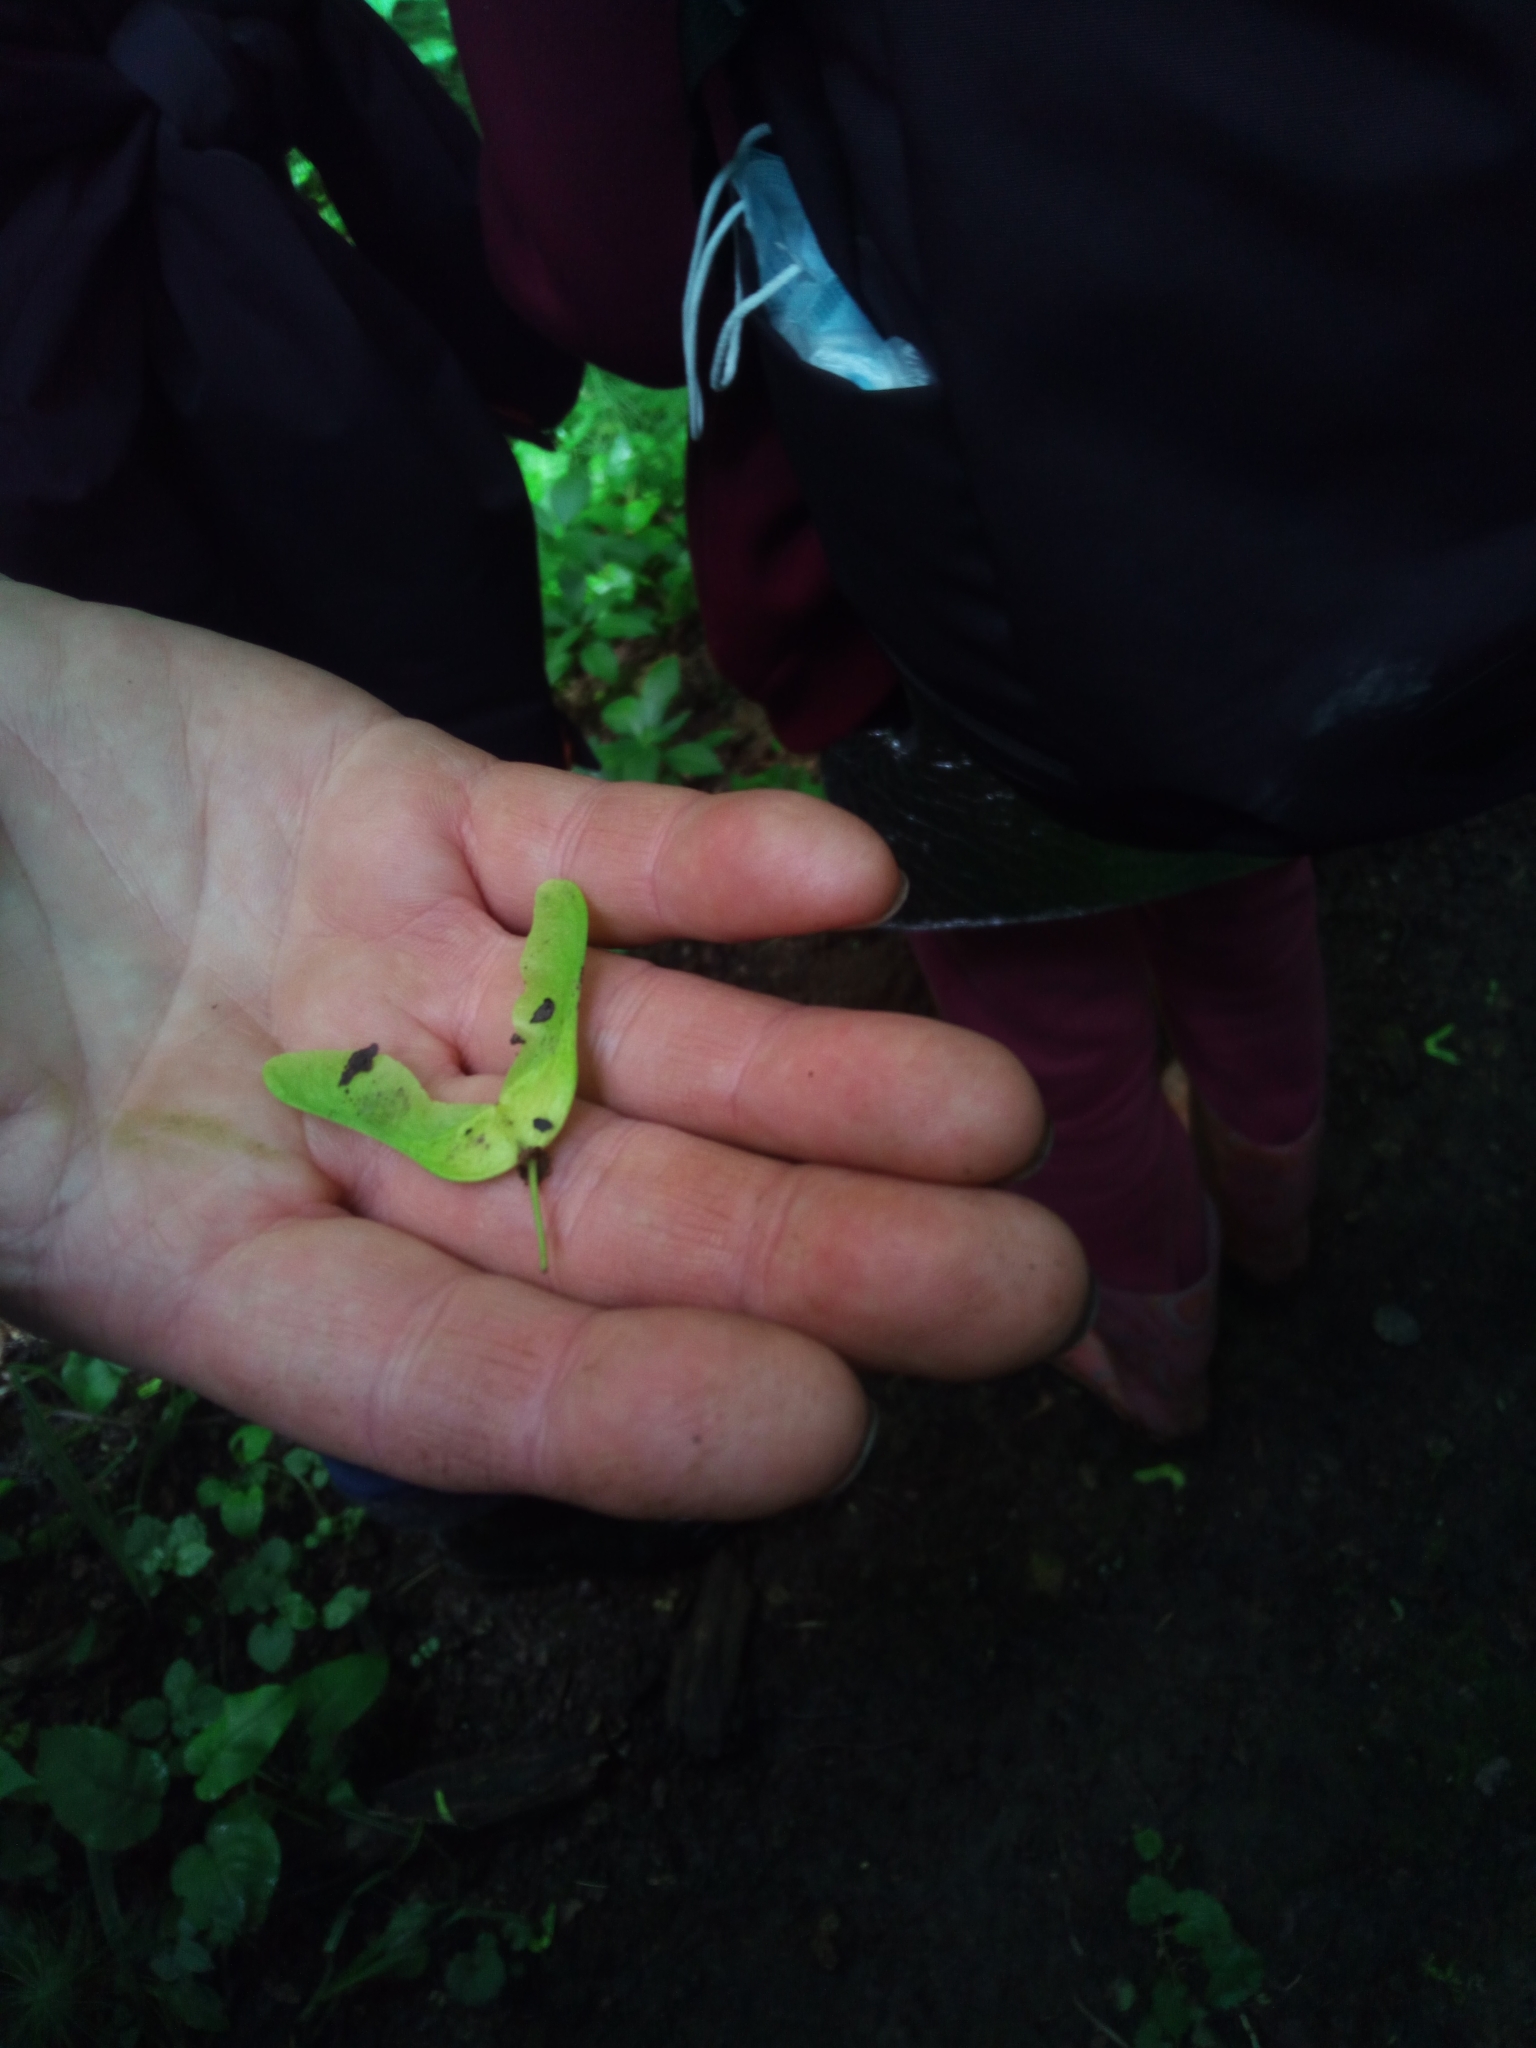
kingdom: Plantae
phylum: Tracheophyta
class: Magnoliopsida
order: Sapindales
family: Sapindaceae
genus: Acer
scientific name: Acer platanoides
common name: Norway maple
